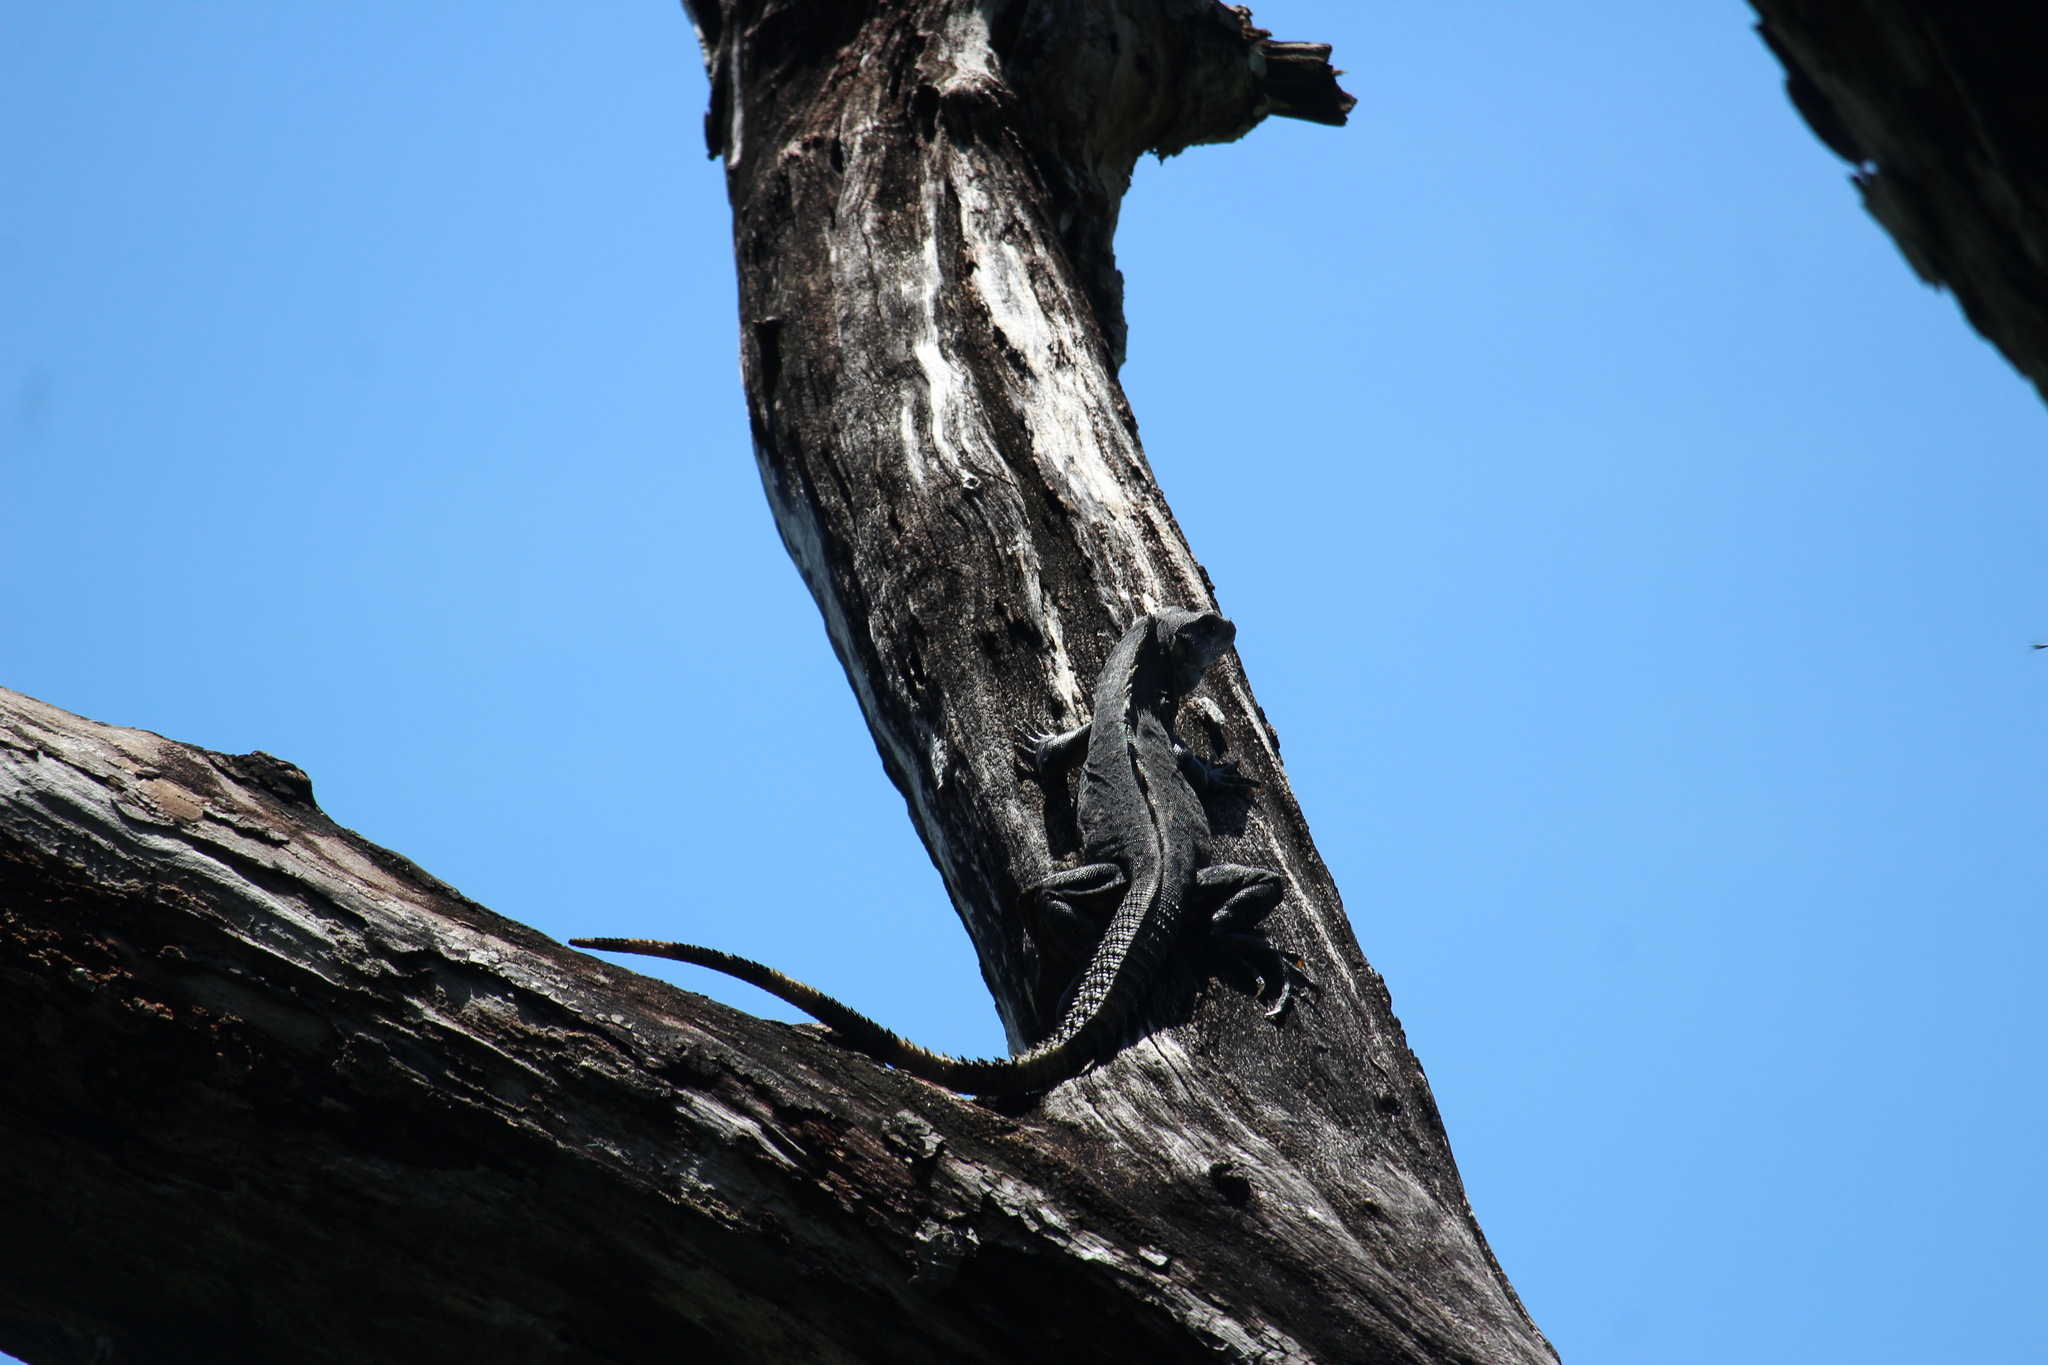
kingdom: Animalia
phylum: Chordata
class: Squamata
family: Iguanidae
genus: Ctenosaura
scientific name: Ctenosaura similis
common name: Black spiny-tailed iguana
